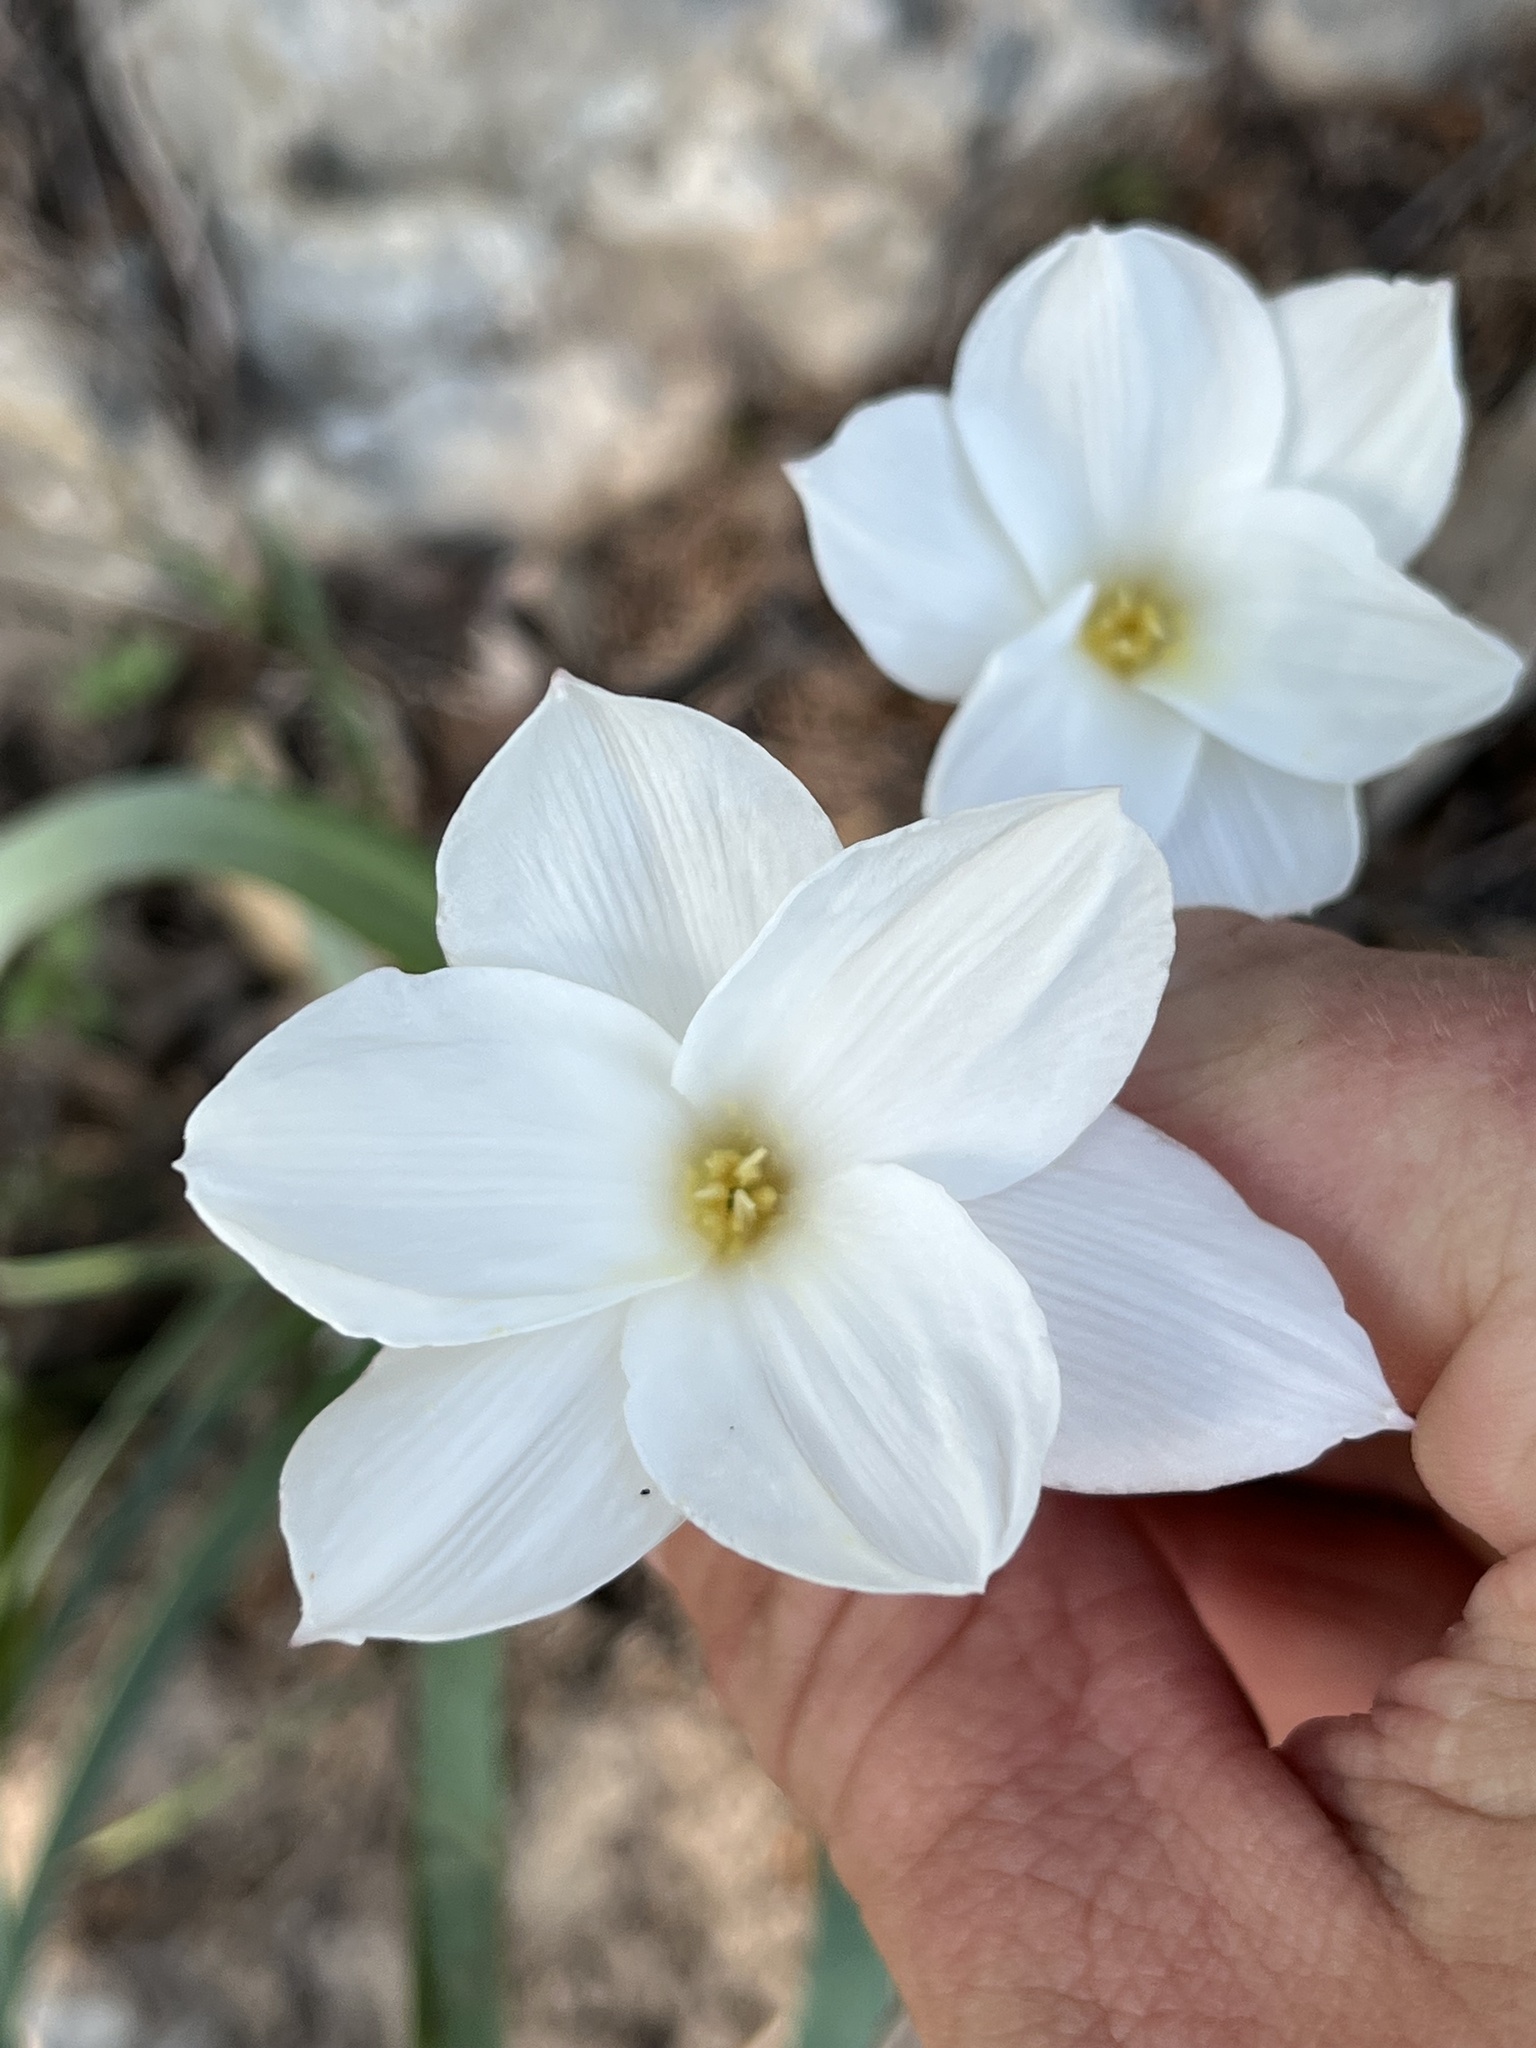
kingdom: Plantae
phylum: Tracheophyta
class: Liliopsida
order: Asparagales
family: Amaryllidaceae
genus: Zephyranthes
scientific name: Zephyranthes drummondii
